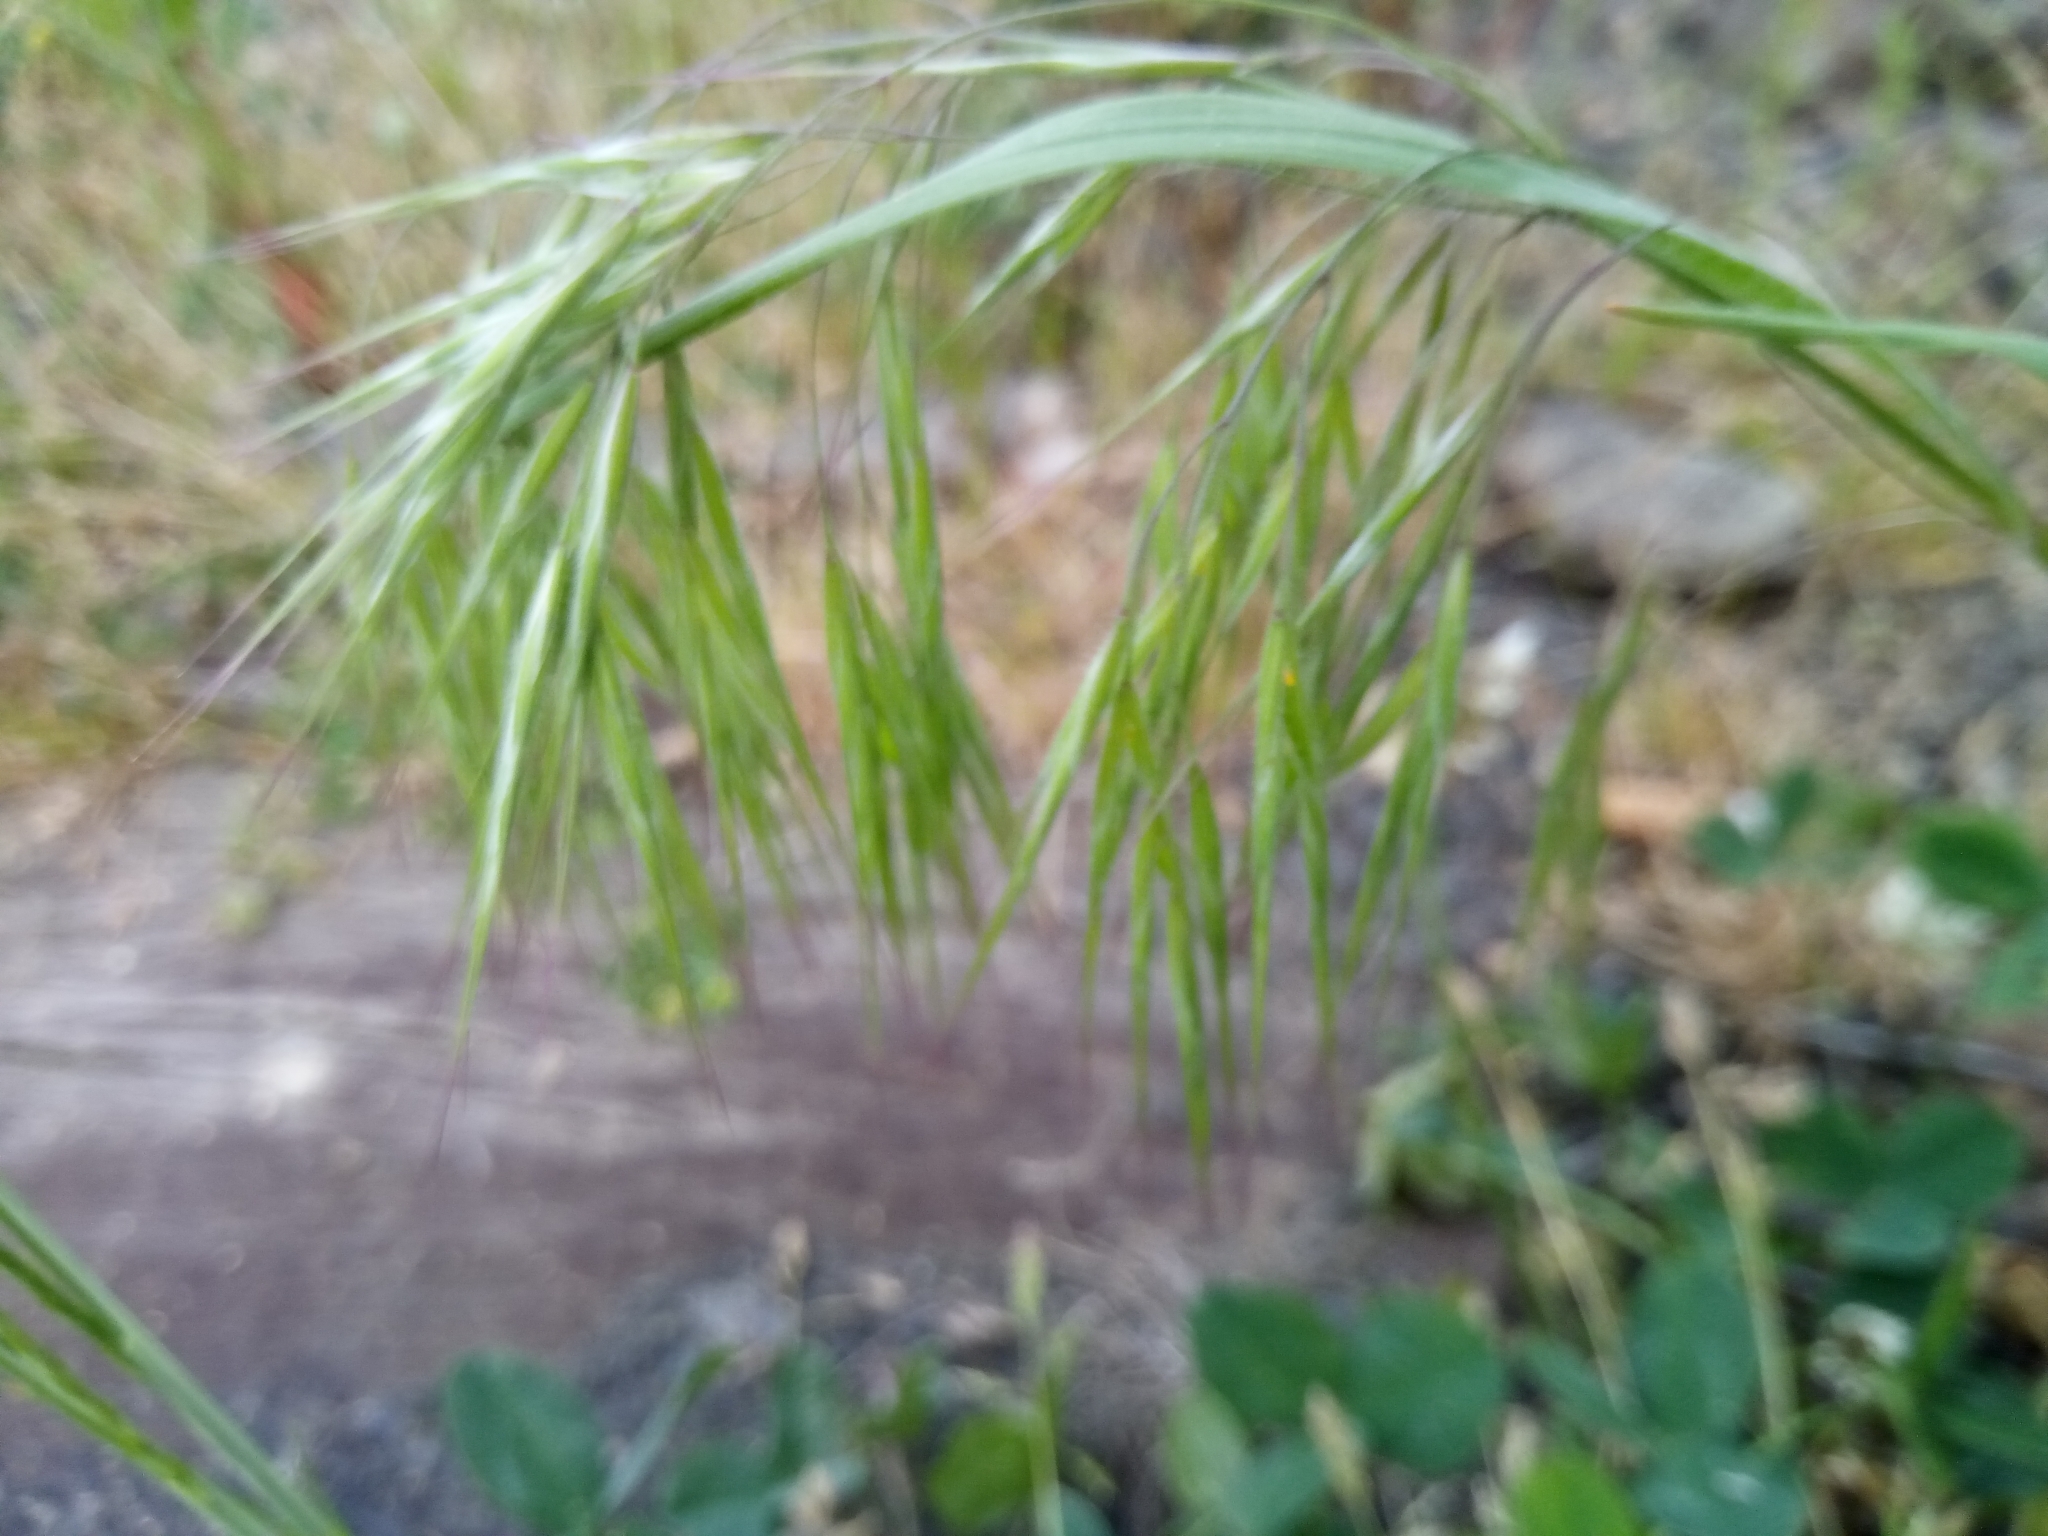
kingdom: Plantae
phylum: Tracheophyta
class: Liliopsida
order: Poales
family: Poaceae
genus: Bromus
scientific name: Bromus tectorum
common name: Cheatgrass
